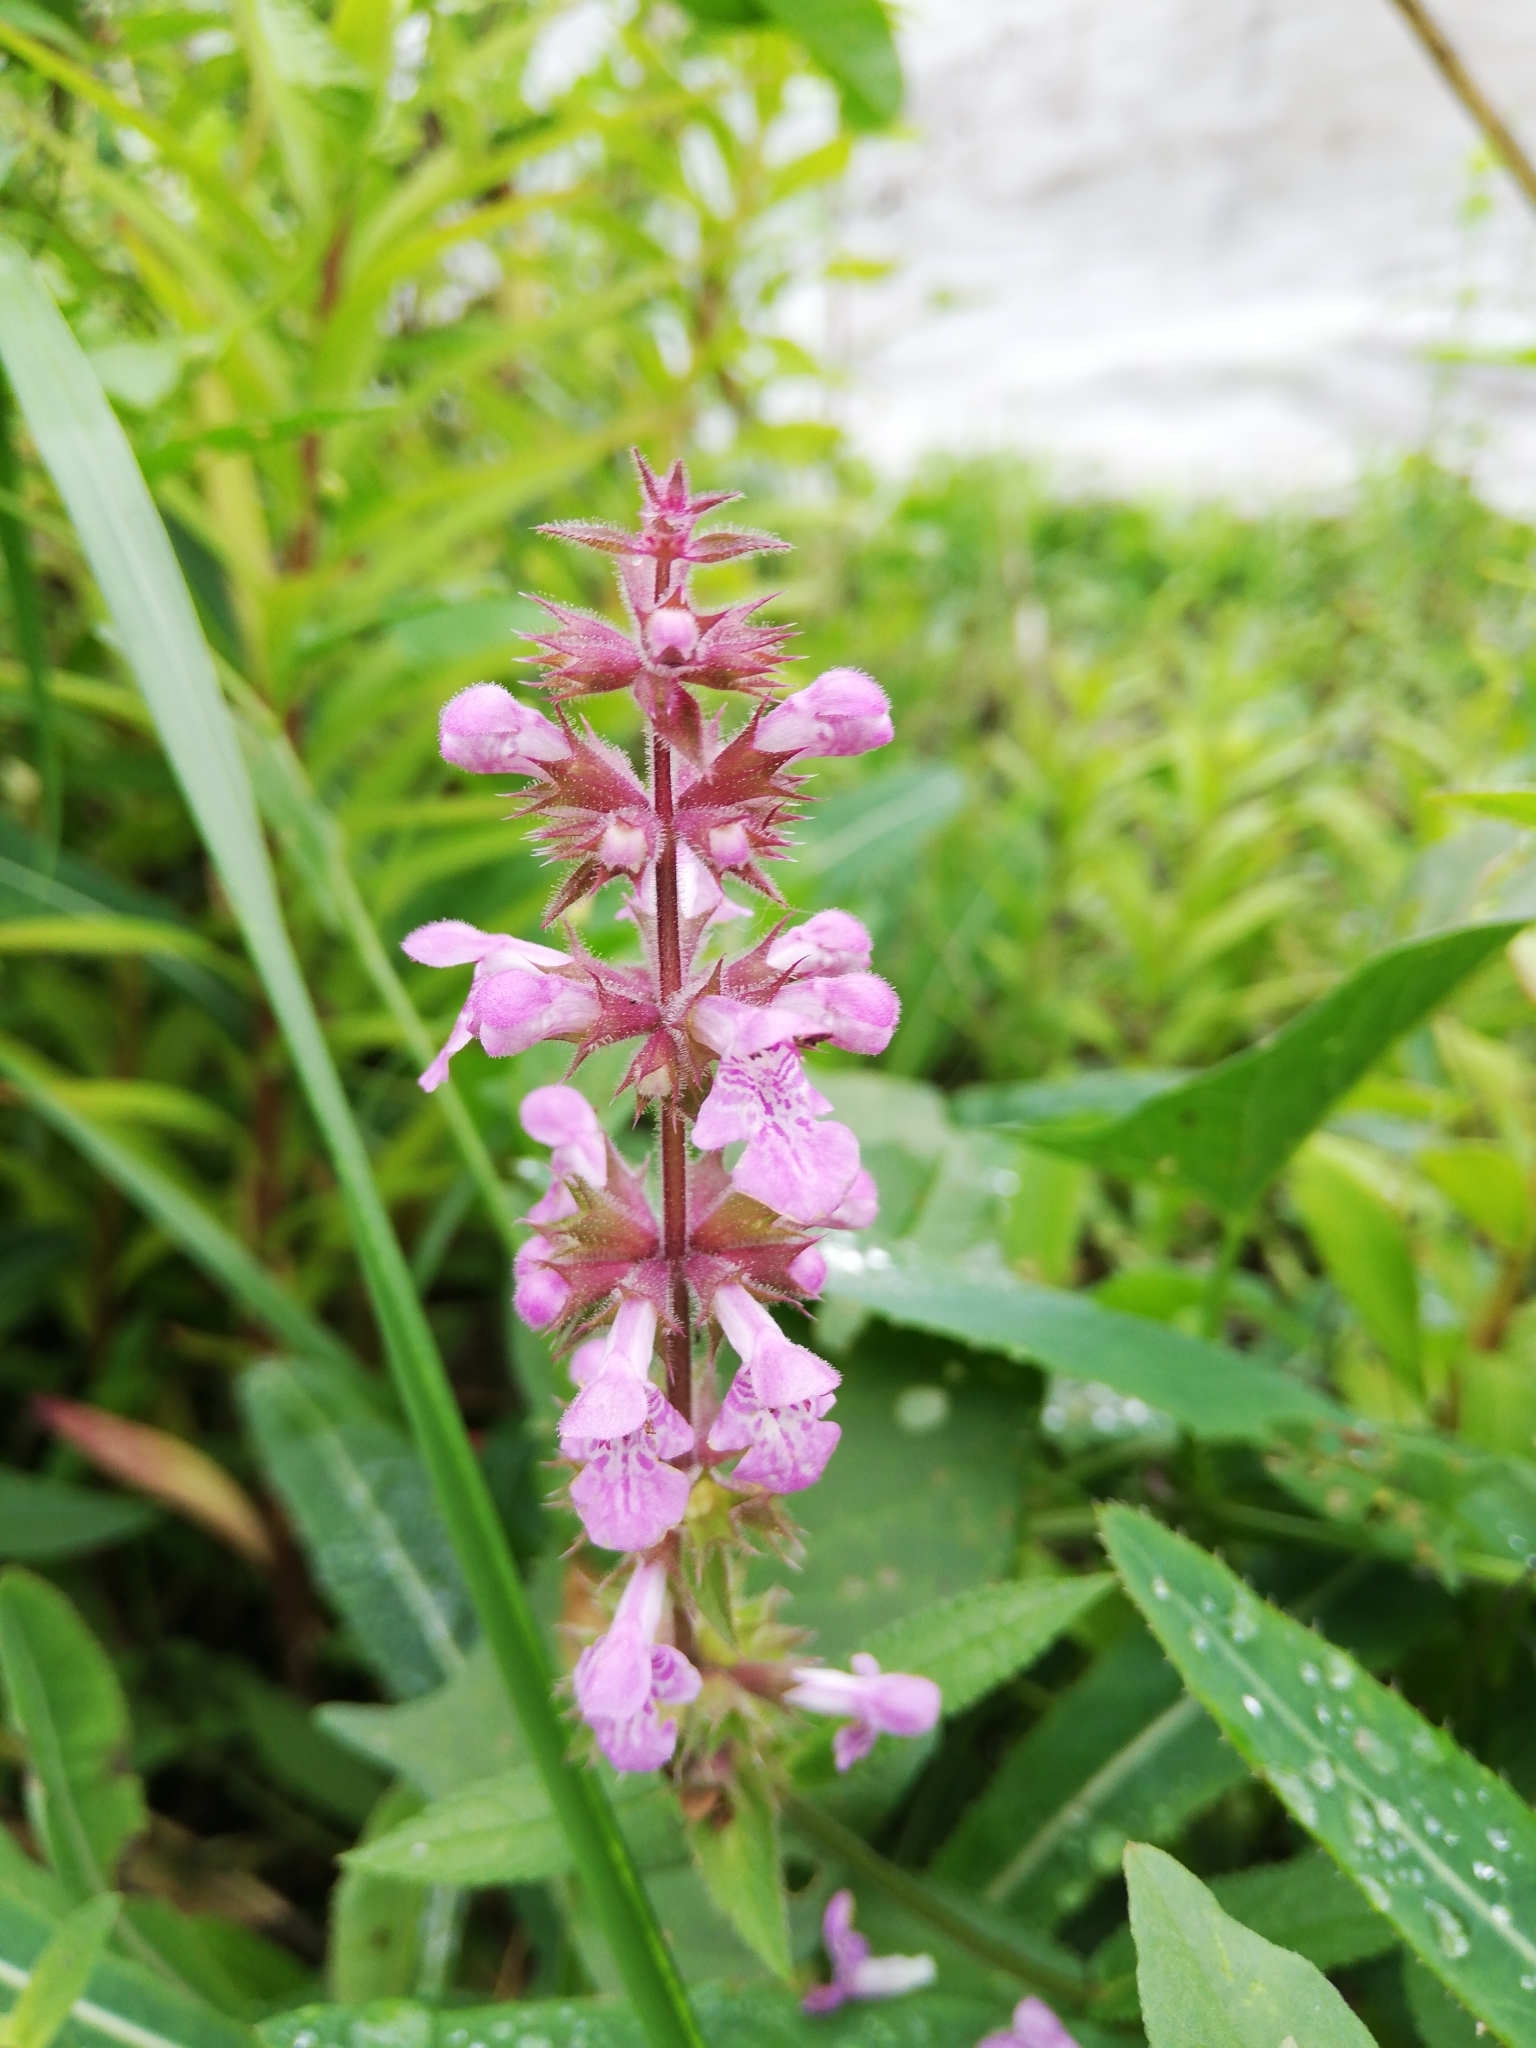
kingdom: Plantae
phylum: Tracheophyta
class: Magnoliopsida
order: Lamiales
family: Lamiaceae
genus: Stachys
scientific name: Stachys palustris
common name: Marsh woundwort
